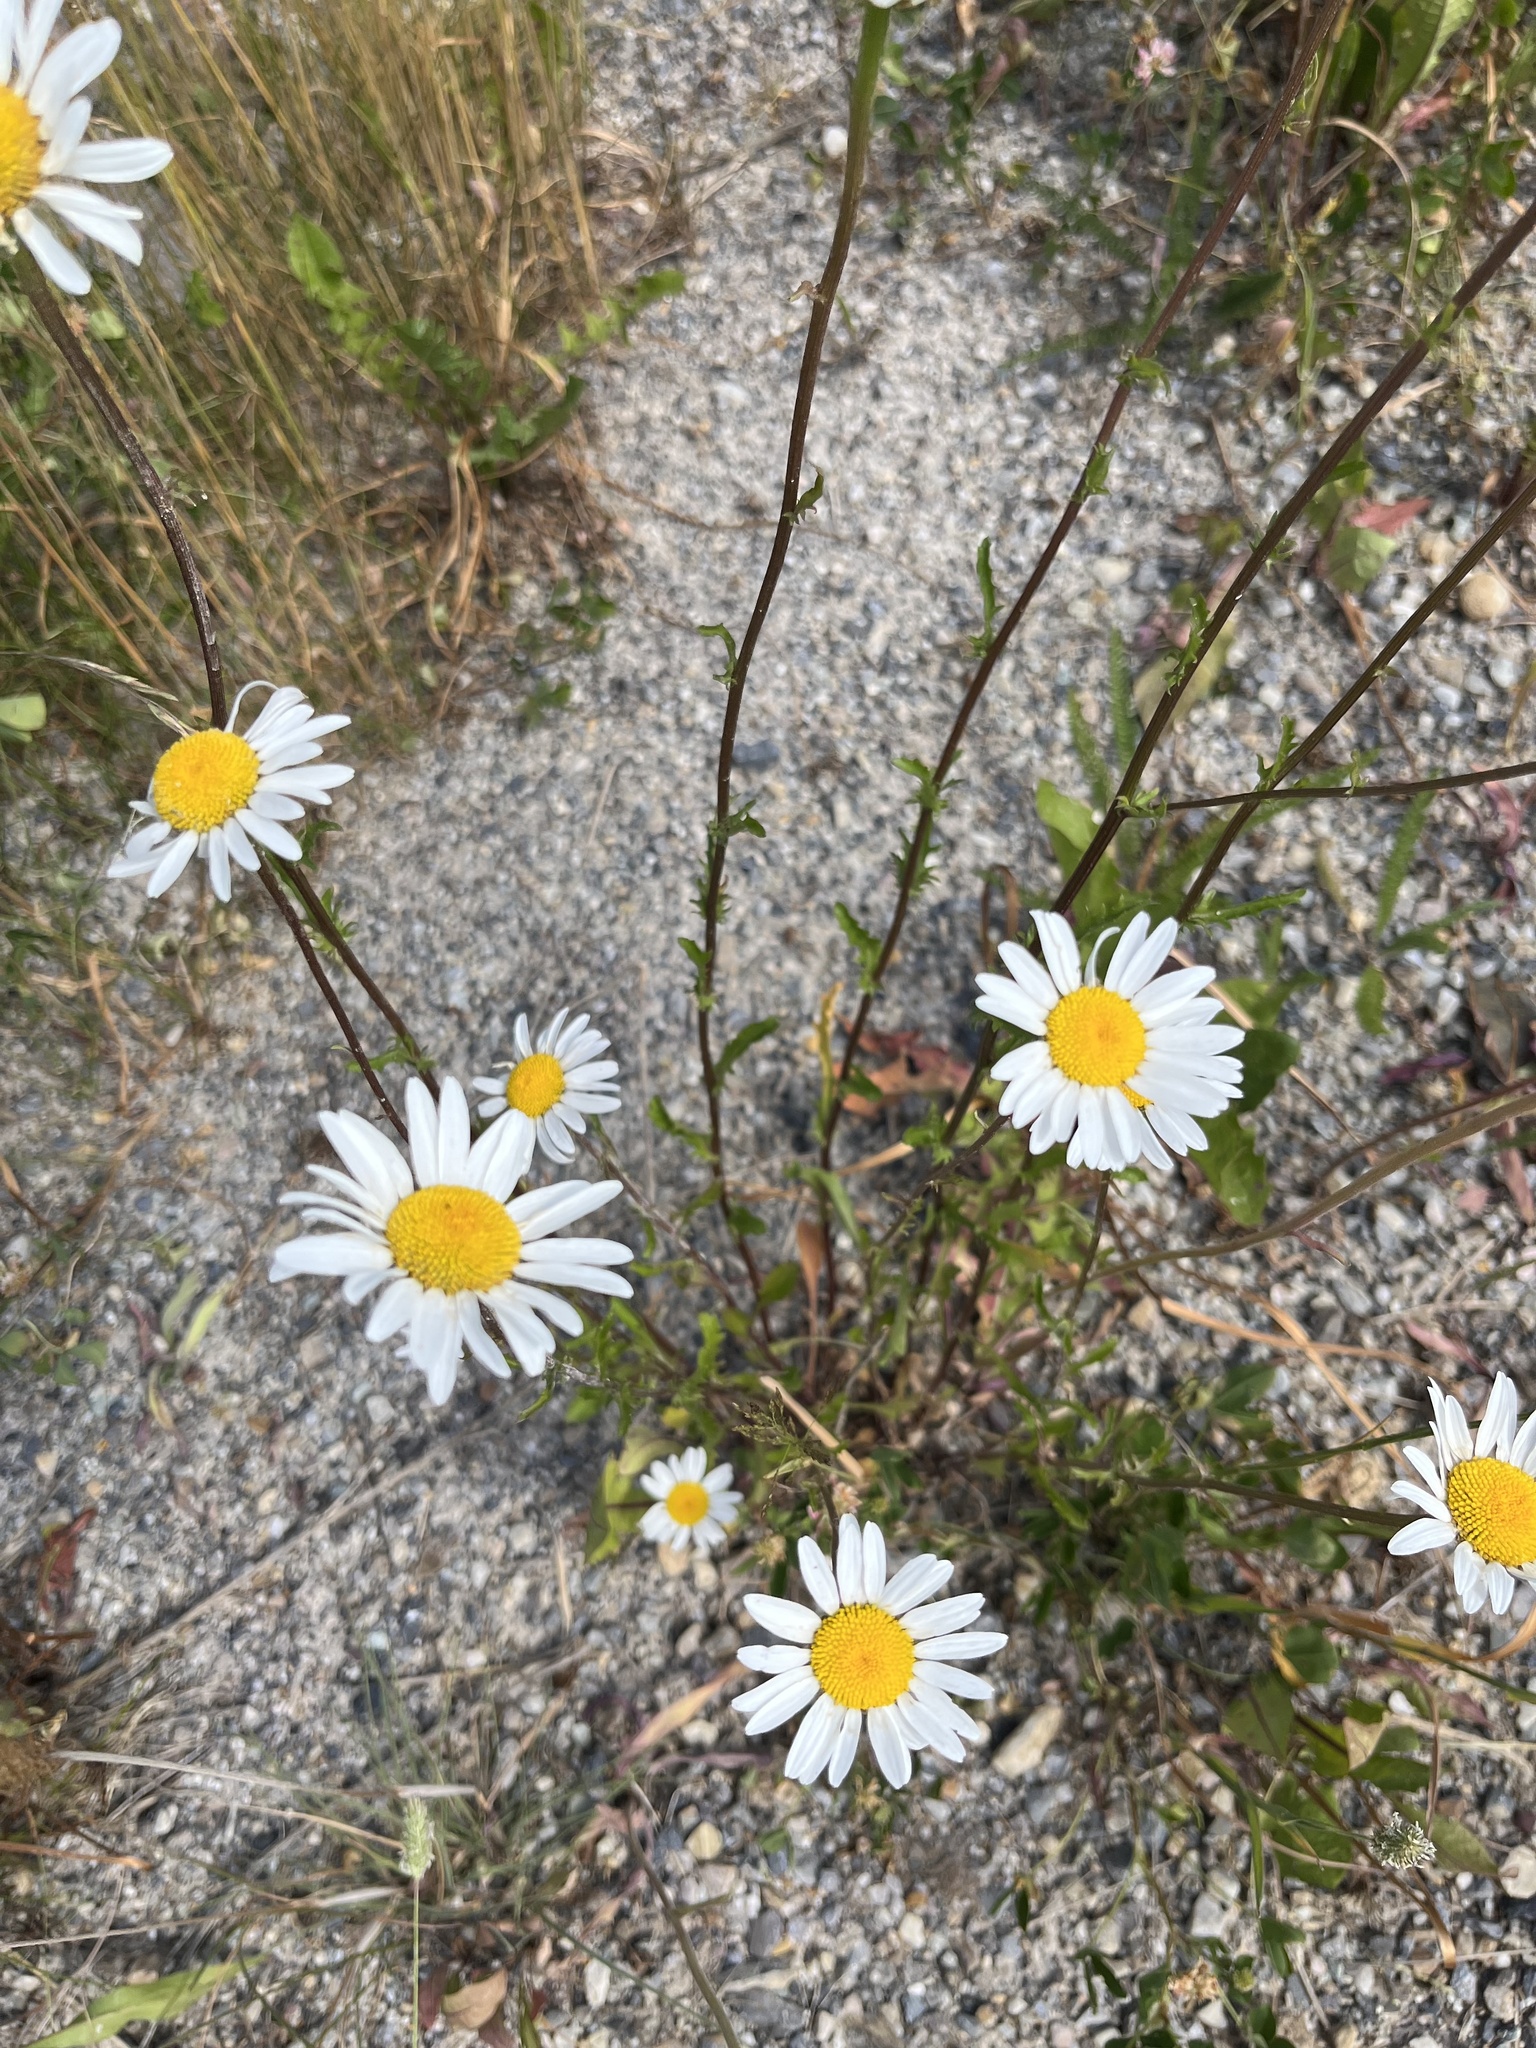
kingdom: Plantae
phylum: Tracheophyta
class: Magnoliopsida
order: Asterales
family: Asteraceae
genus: Leucanthemum
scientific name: Leucanthemum vulgare
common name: Oxeye daisy
